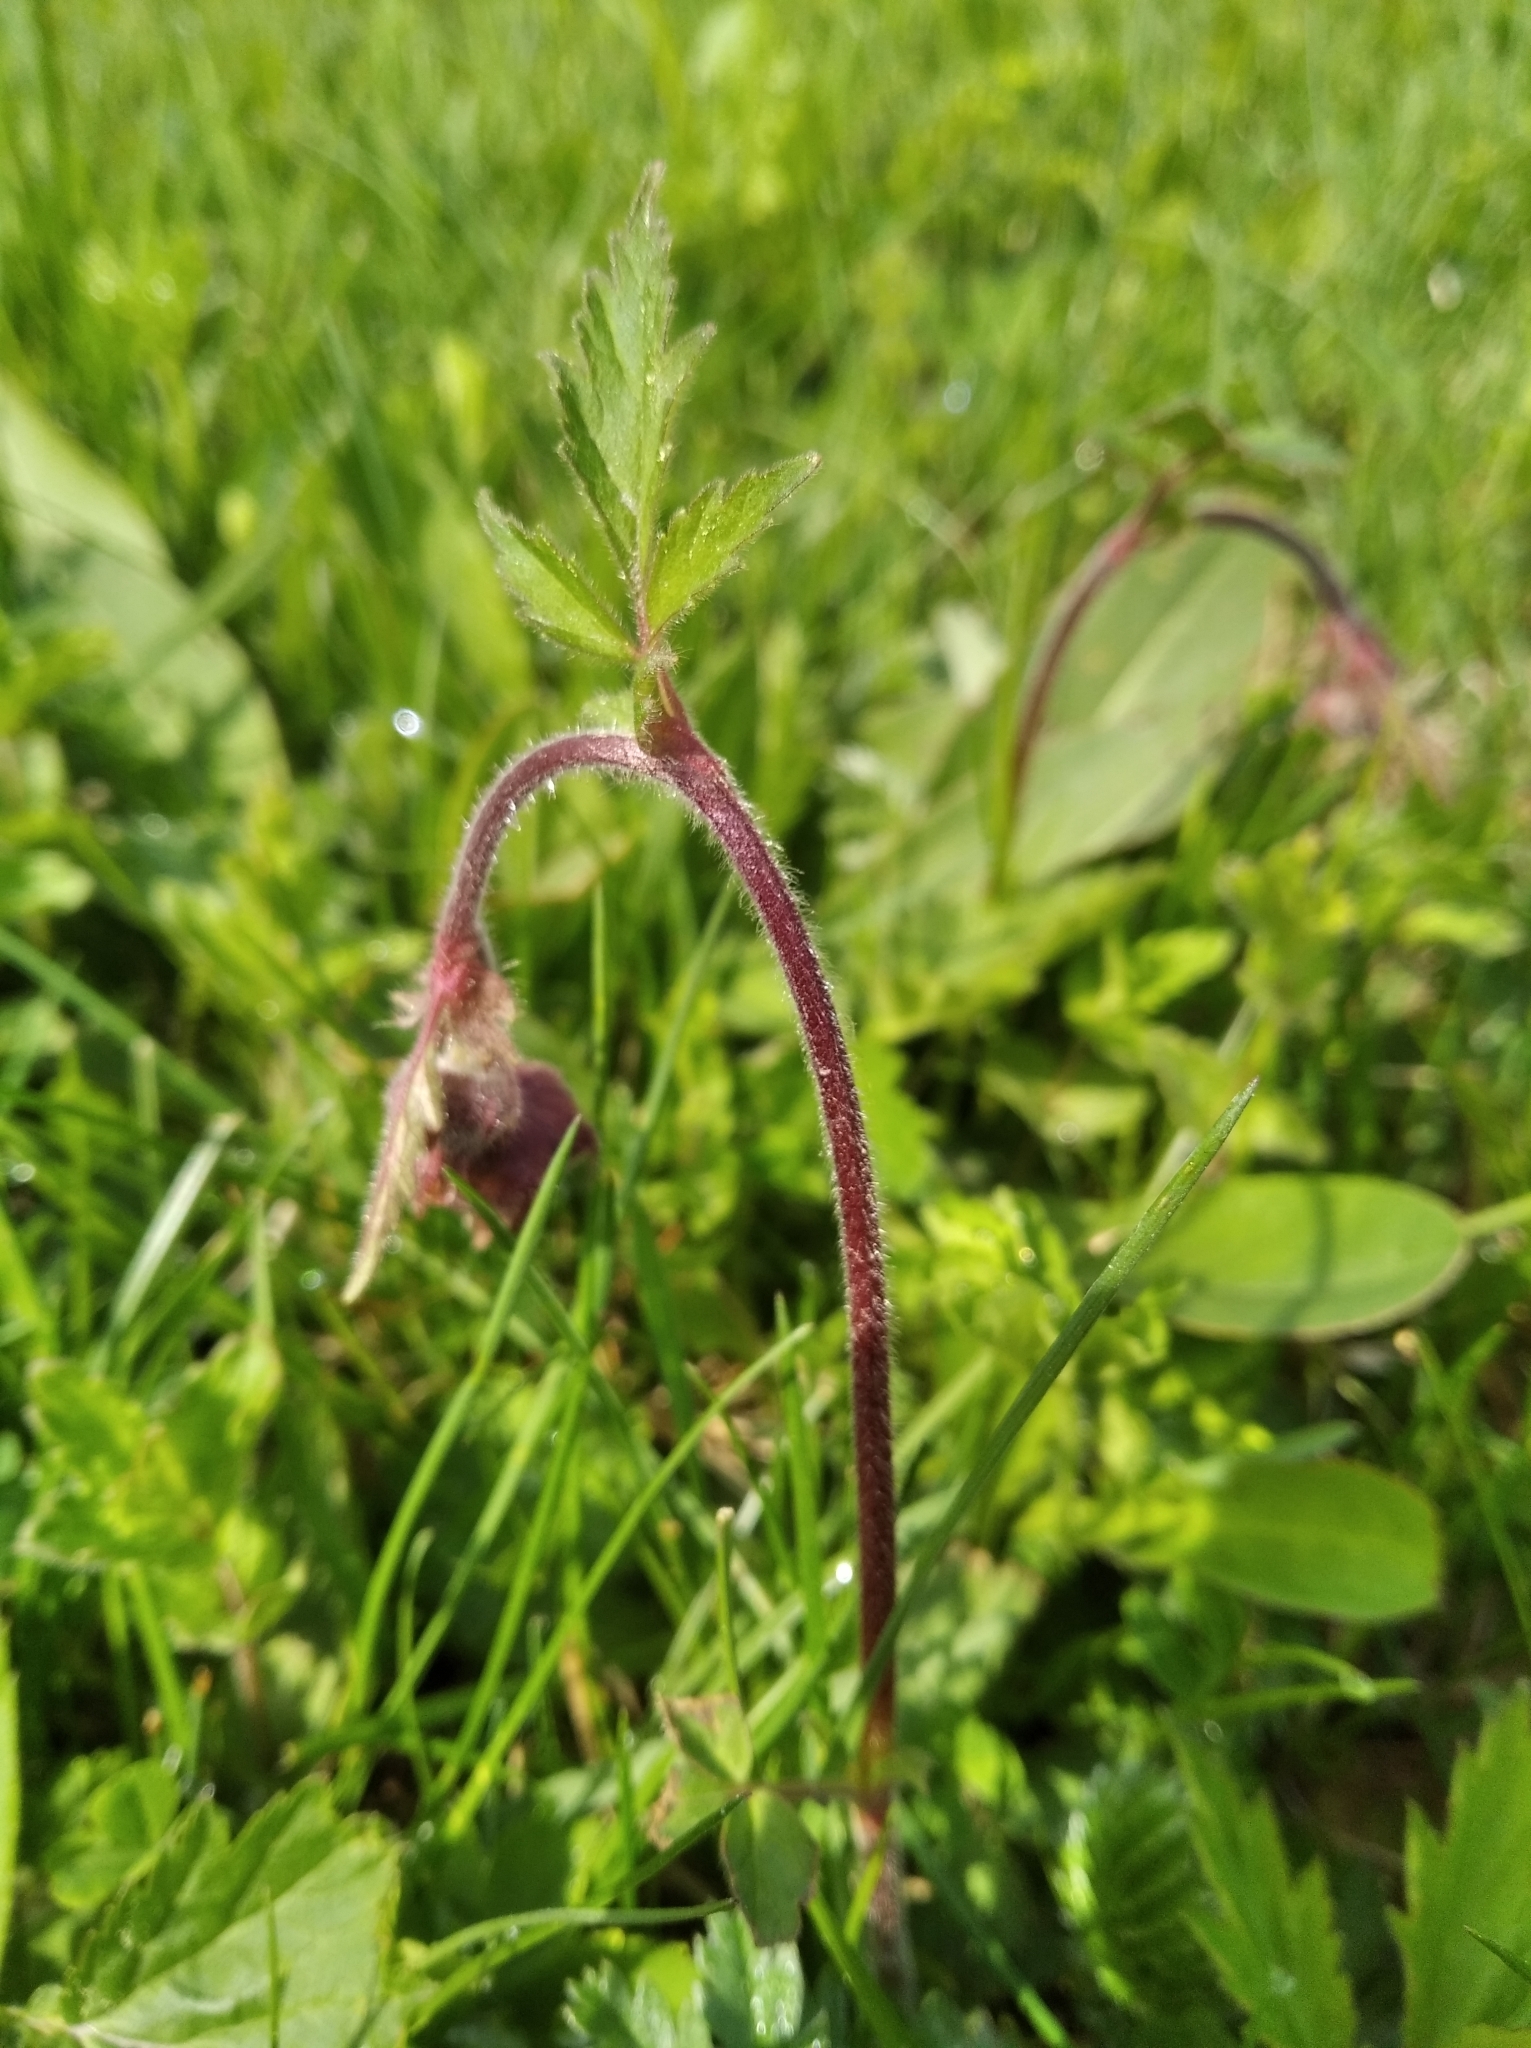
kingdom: Plantae
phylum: Tracheophyta
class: Magnoliopsida
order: Rosales
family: Rosaceae
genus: Geum
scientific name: Geum rivale
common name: Water avens
